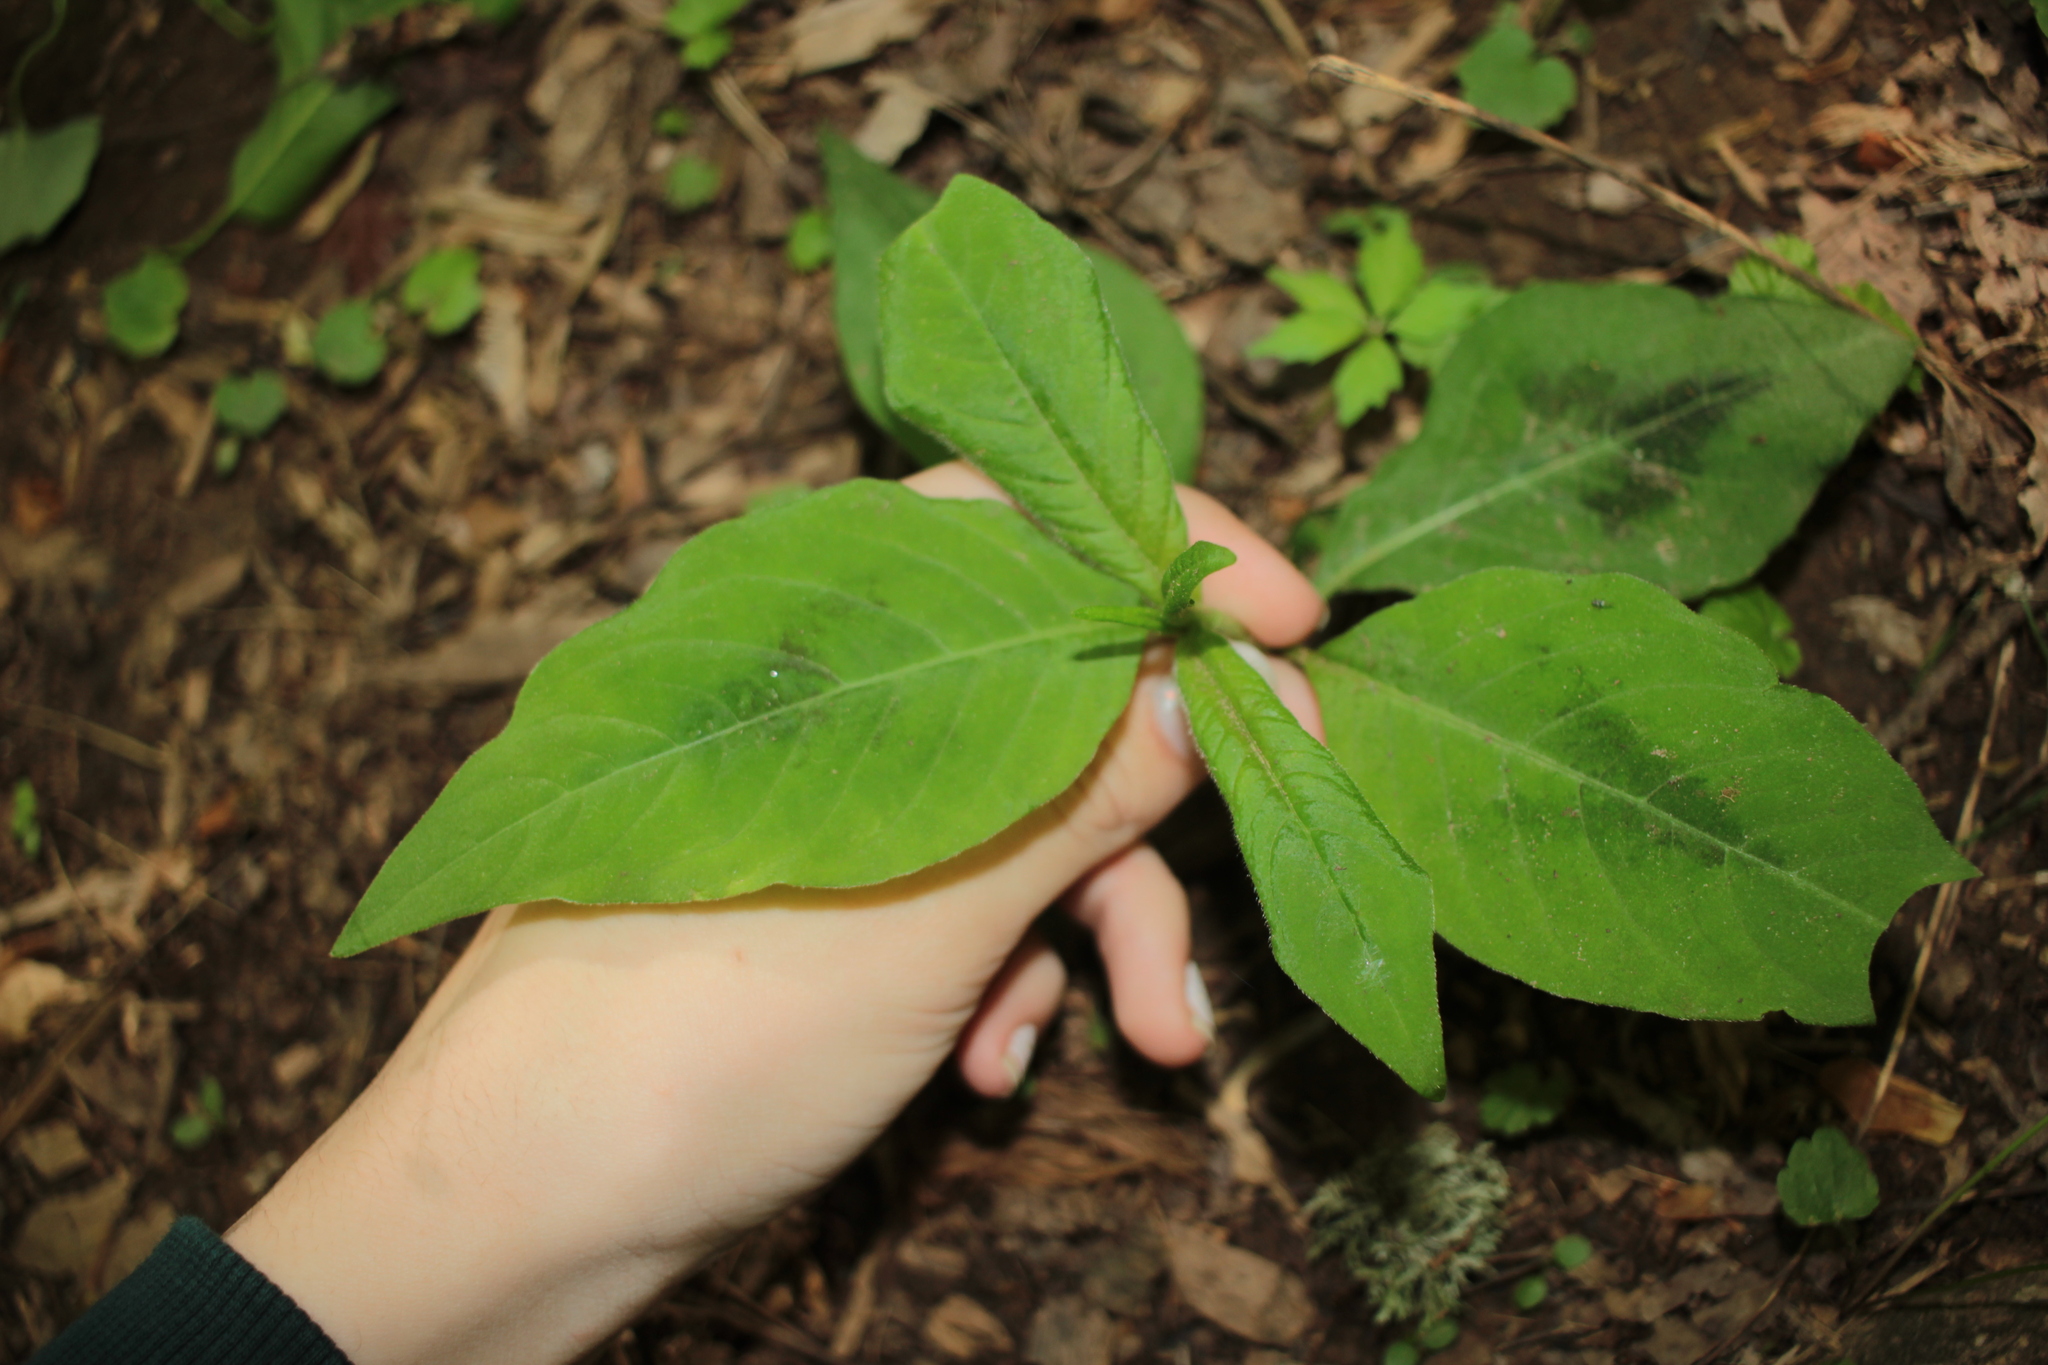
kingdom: Plantae
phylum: Tracheophyta
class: Magnoliopsida
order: Caryophyllales
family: Polygonaceae
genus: Persicaria
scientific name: Persicaria virginiana
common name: Jumpseed
